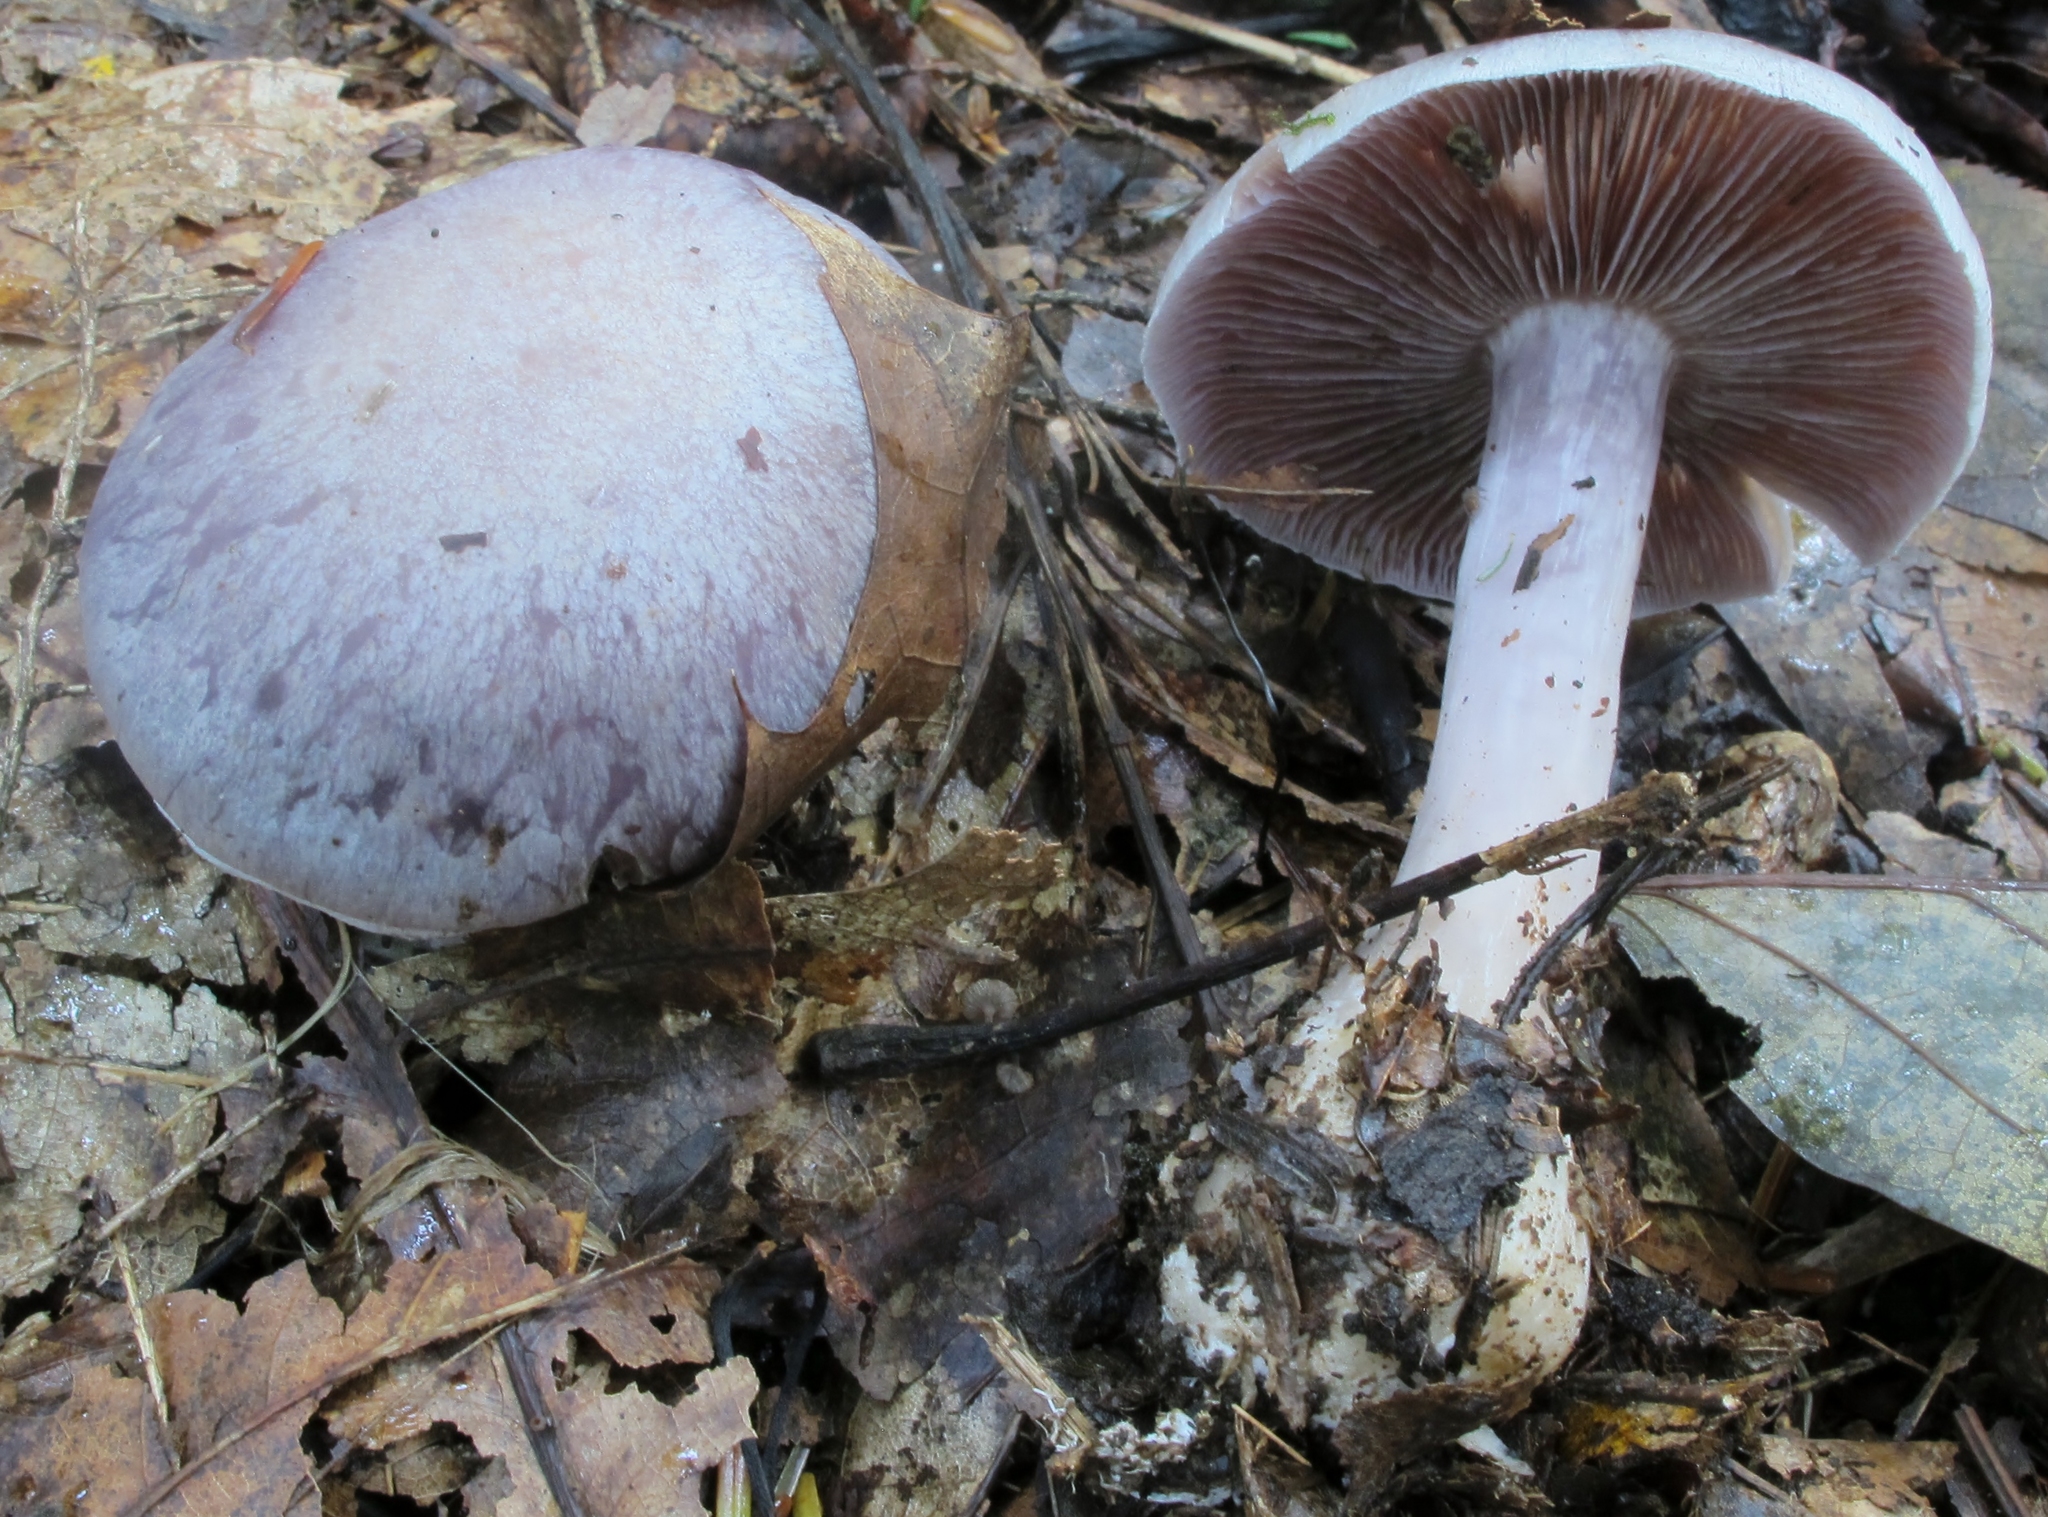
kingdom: Fungi
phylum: Basidiomycota
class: Agaricomycetes
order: Agaricales
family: Cortinariaceae
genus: Cortinarius
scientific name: Cortinarius argenteopileatus
